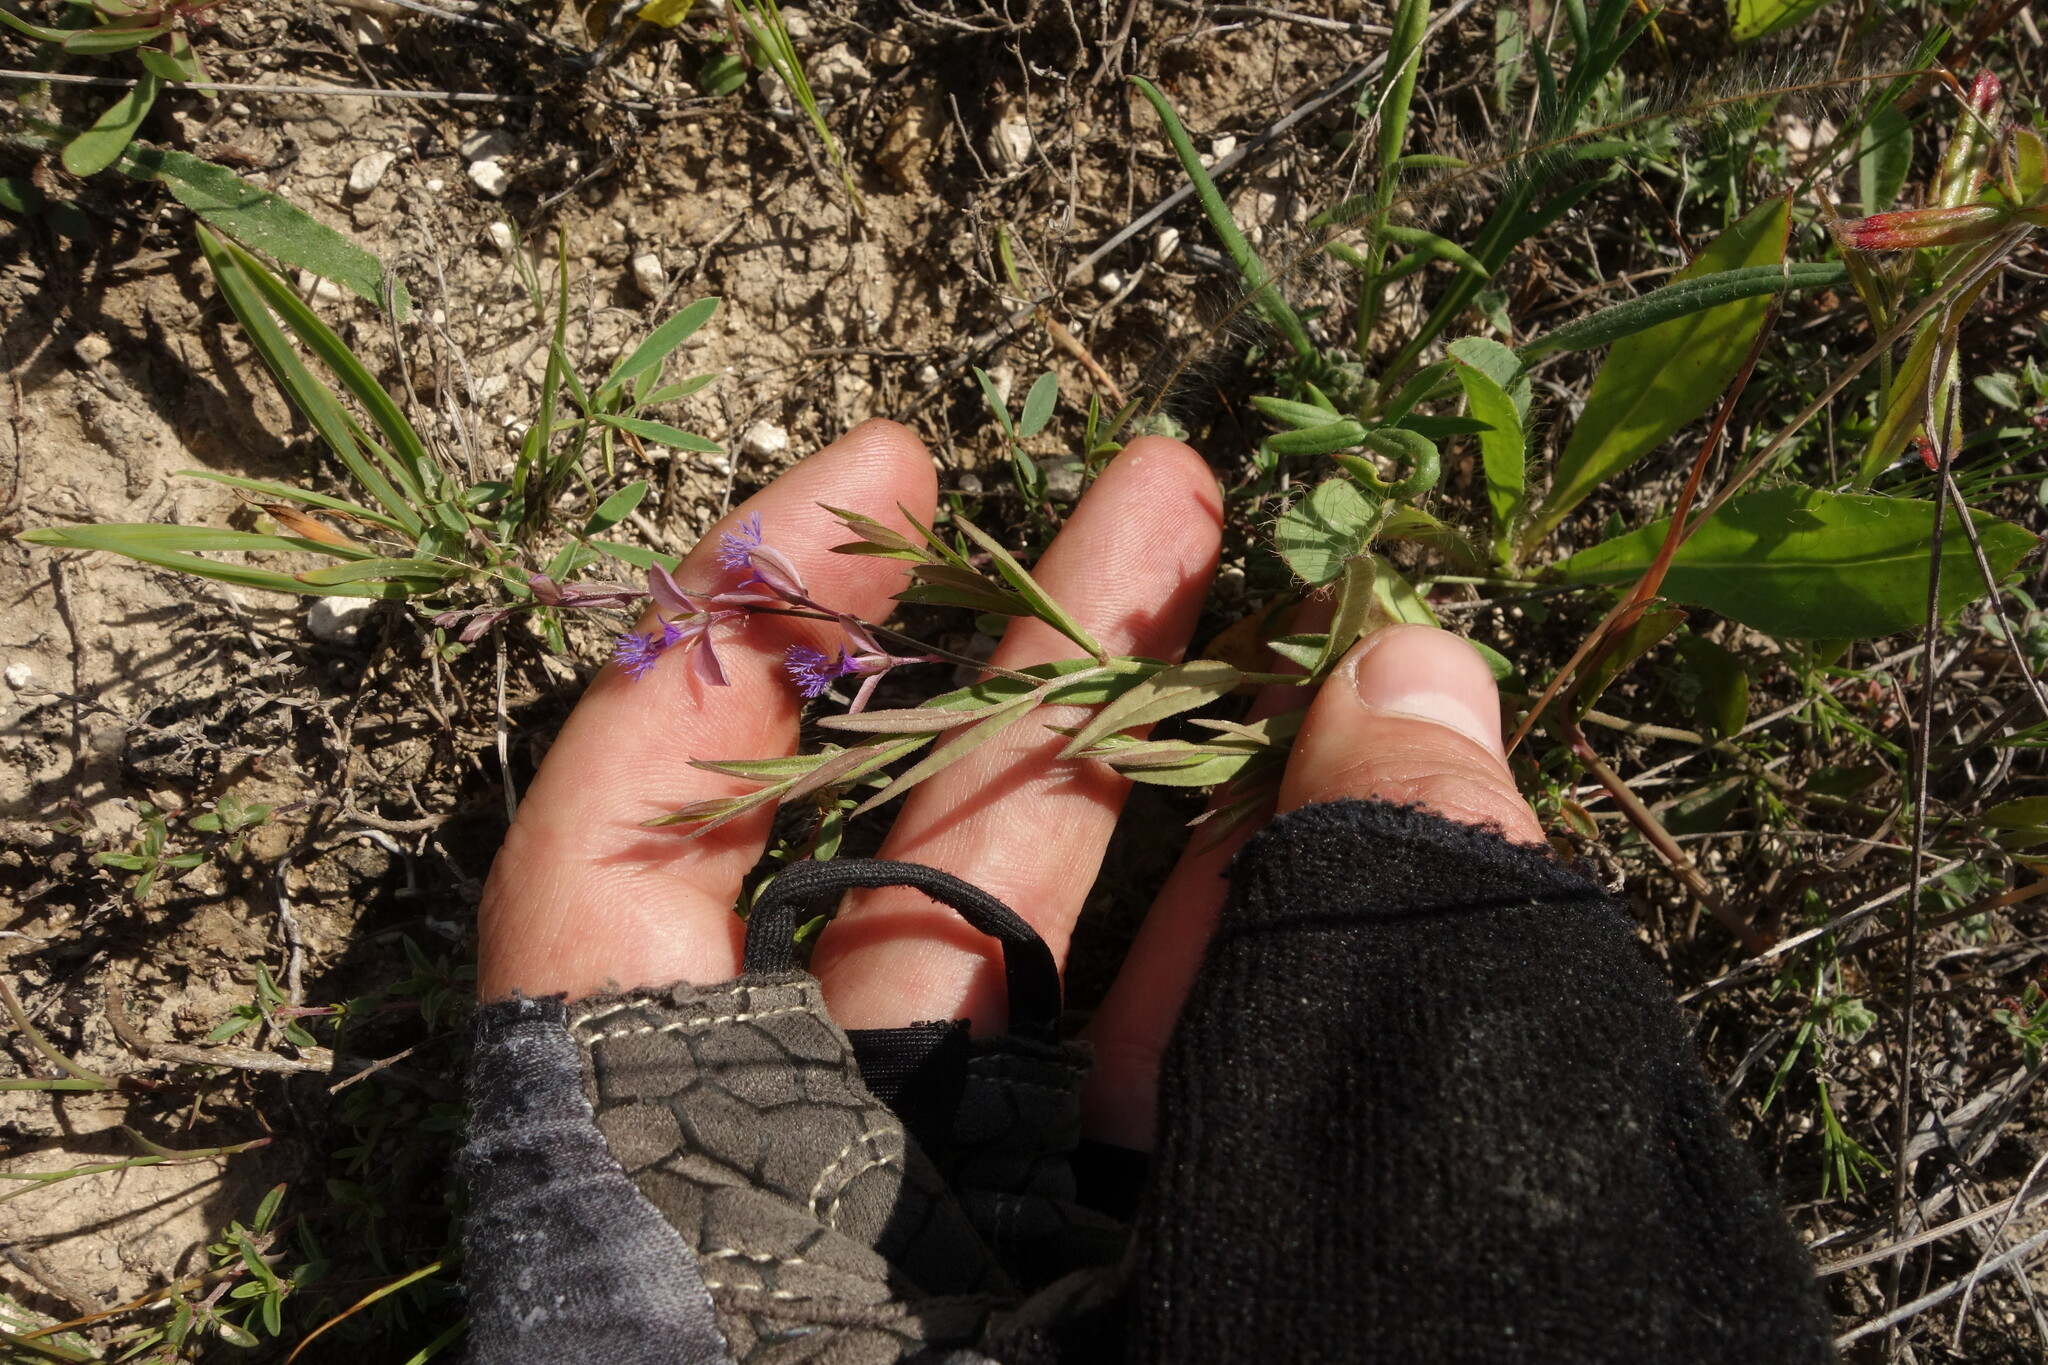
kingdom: Plantae
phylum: Tracheophyta
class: Magnoliopsida
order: Fabales
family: Polygalaceae
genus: Polygala
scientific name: Polygala sibirica
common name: Siberian polygala
